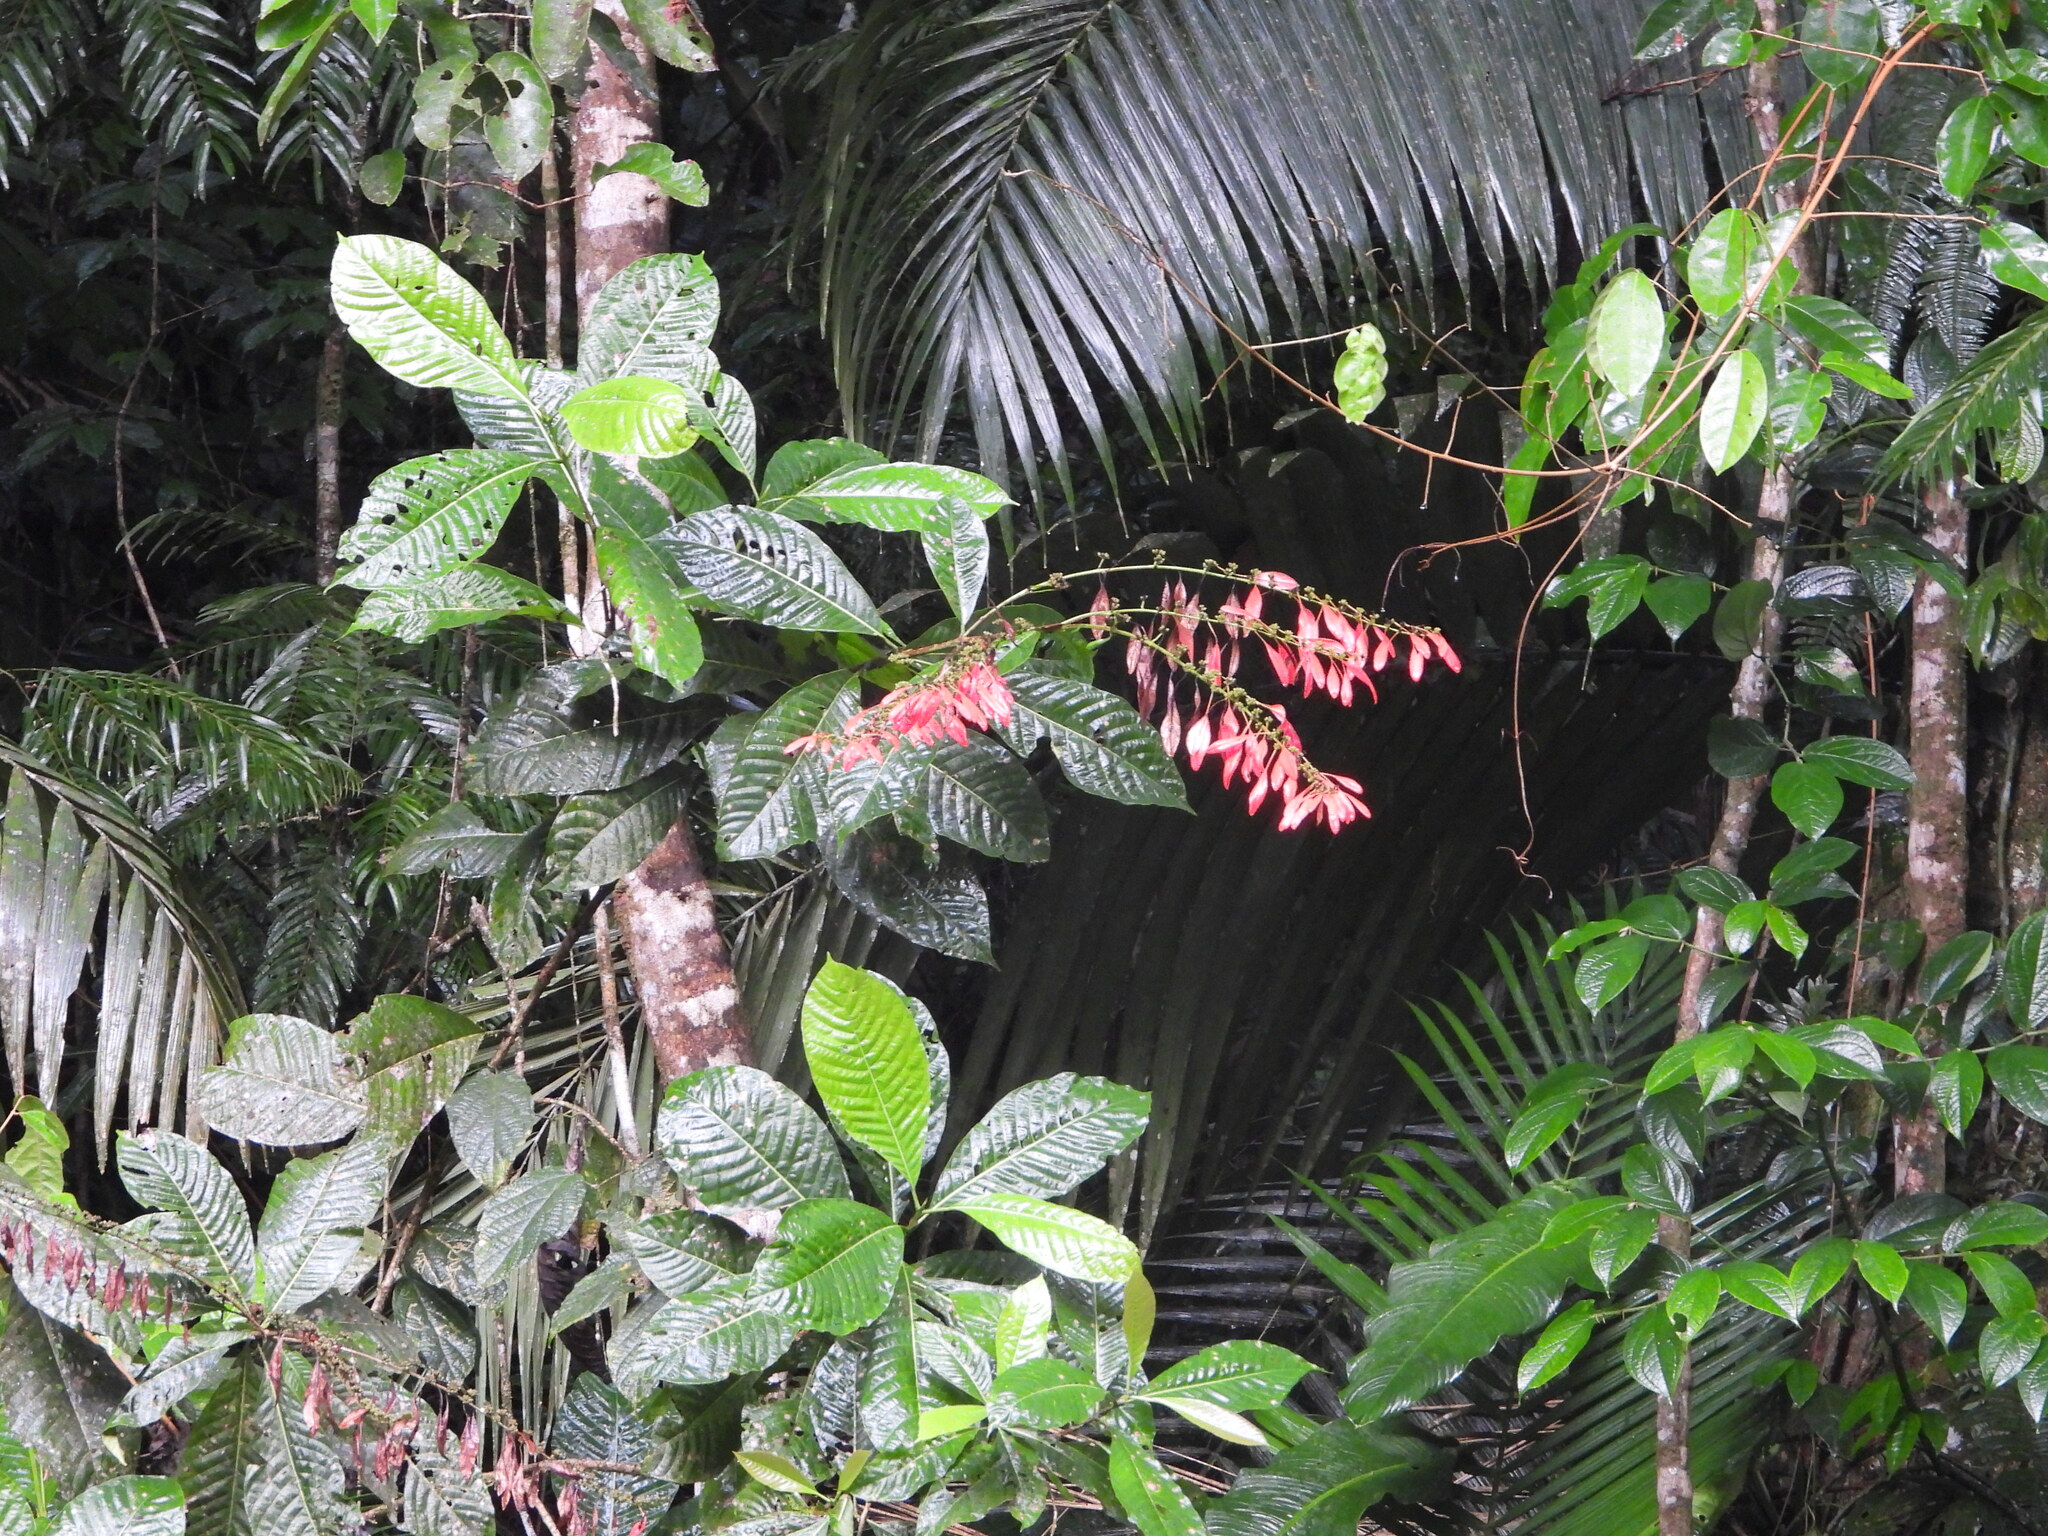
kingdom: Plantae
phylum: Tracheophyta
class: Magnoliopsida
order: Gentianales
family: Rubiaceae
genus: Warszewiczia
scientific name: Warszewiczia coccinea
